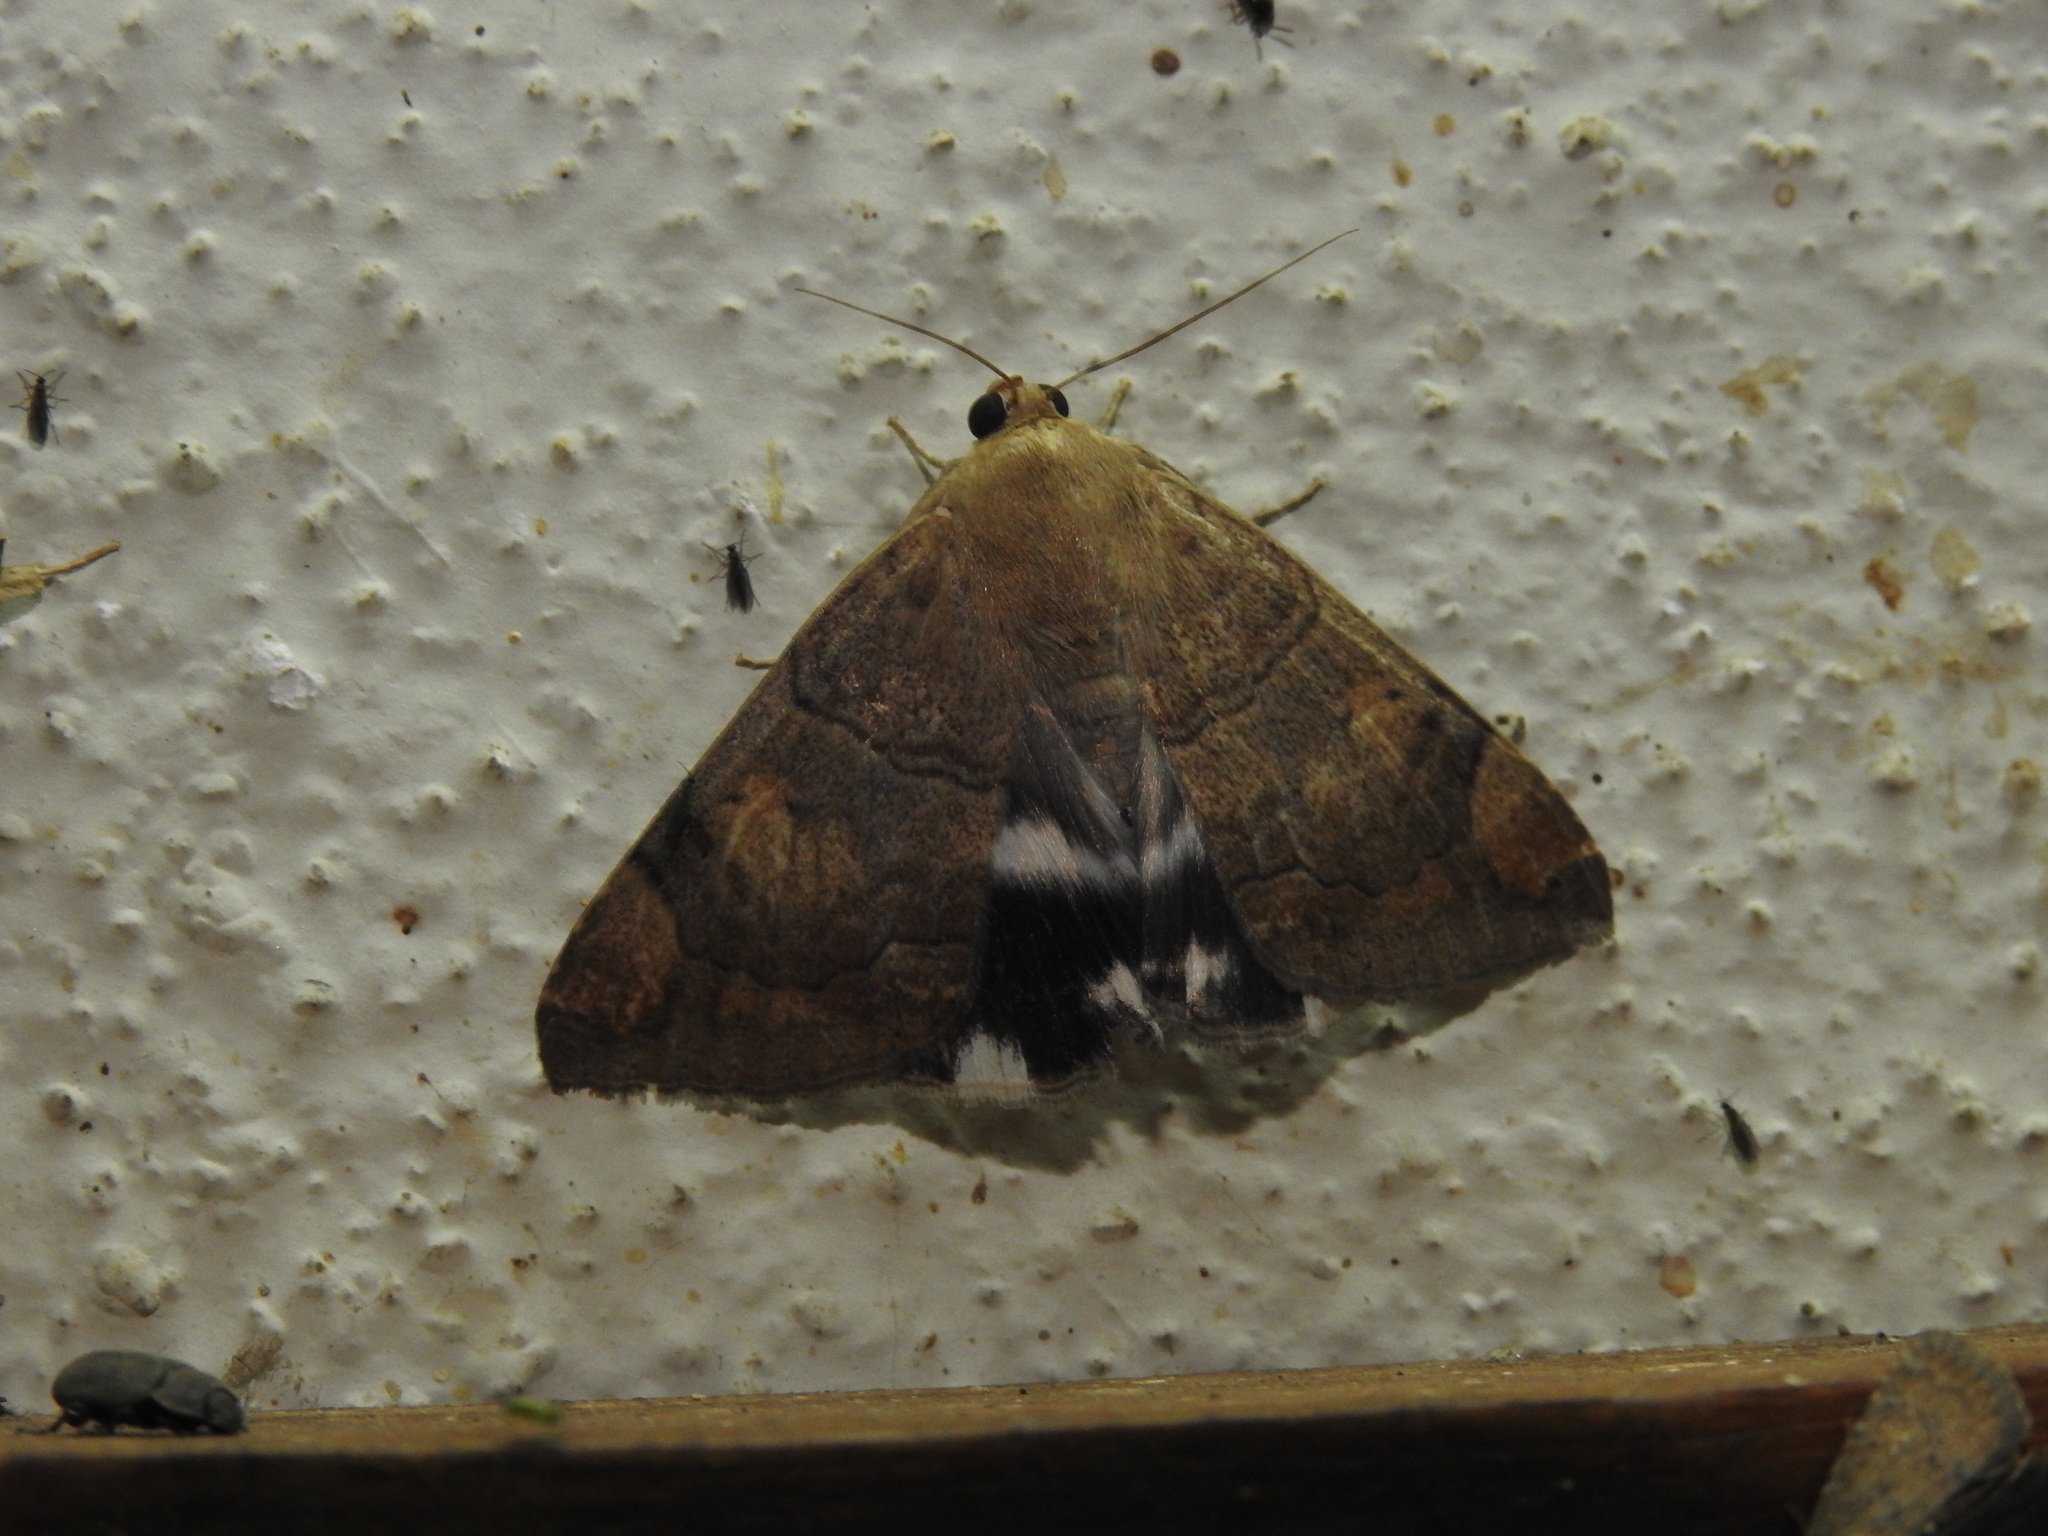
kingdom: Animalia
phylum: Arthropoda
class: Insecta
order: Lepidoptera
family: Erebidae
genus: Achaea
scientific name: Achaea janata
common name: Croton caterpillar
